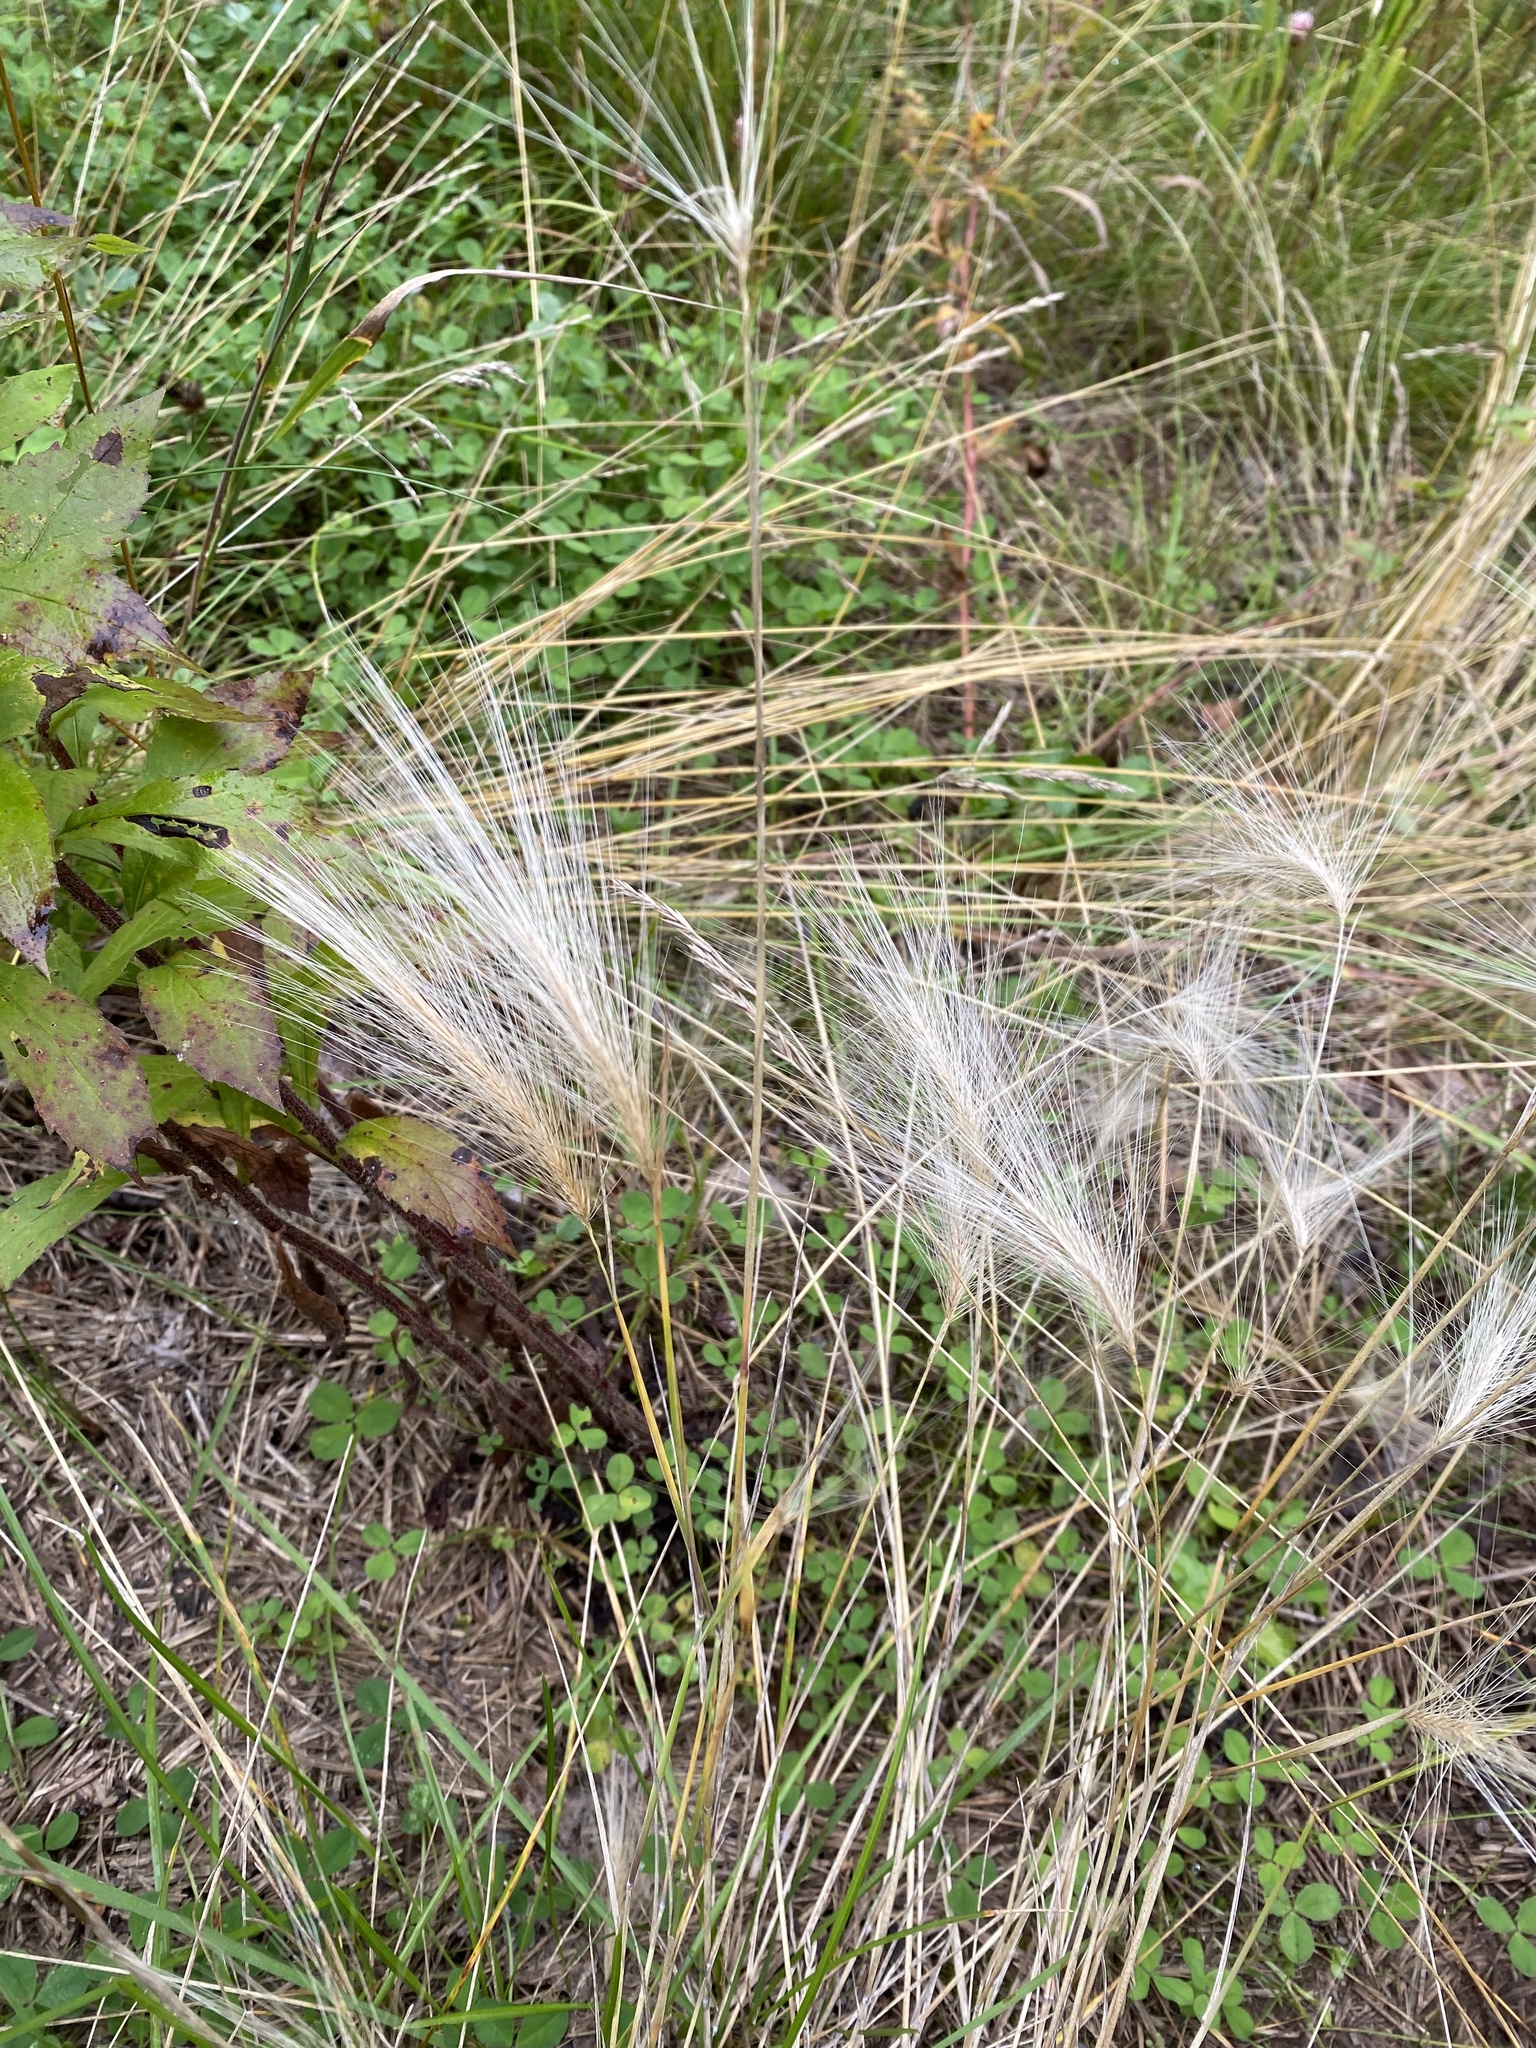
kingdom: Plantae
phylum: Tracheophyta
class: Liliopsida
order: Poales
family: Poaceae
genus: Hordeum
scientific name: Hordeum jubatum
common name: Foxtail barley
